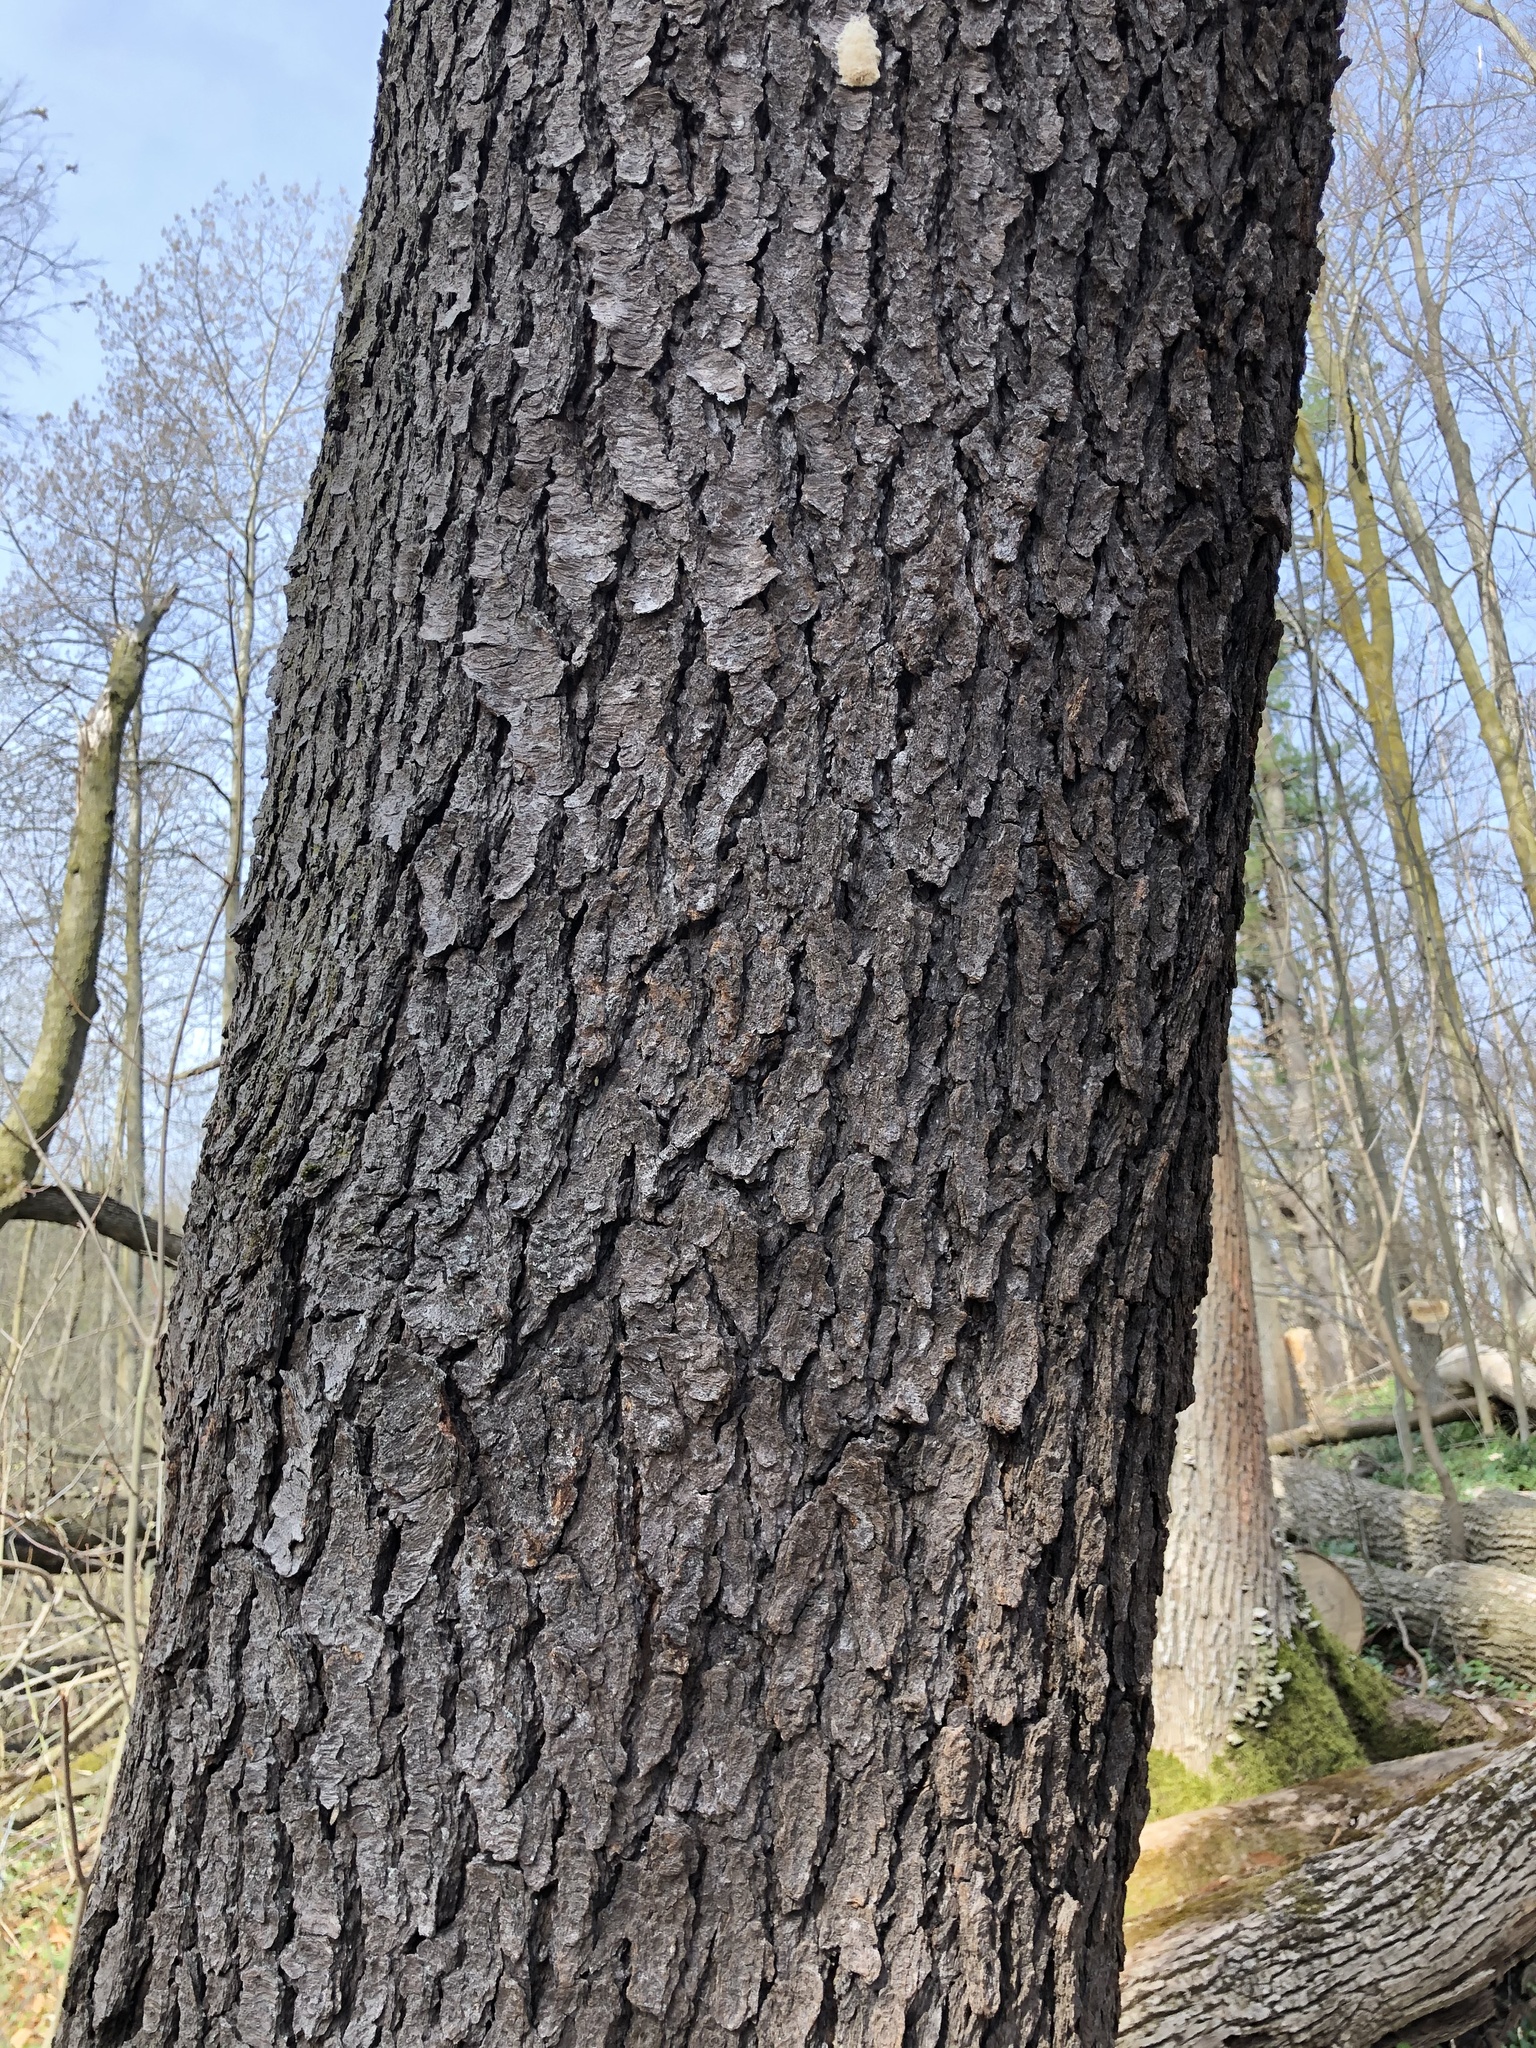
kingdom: Plantae
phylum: Tracheophyta
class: Magnoliopsida
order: Rosales
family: Rosaceae
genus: Prunus
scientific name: Prunus serotina
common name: Black cherry
